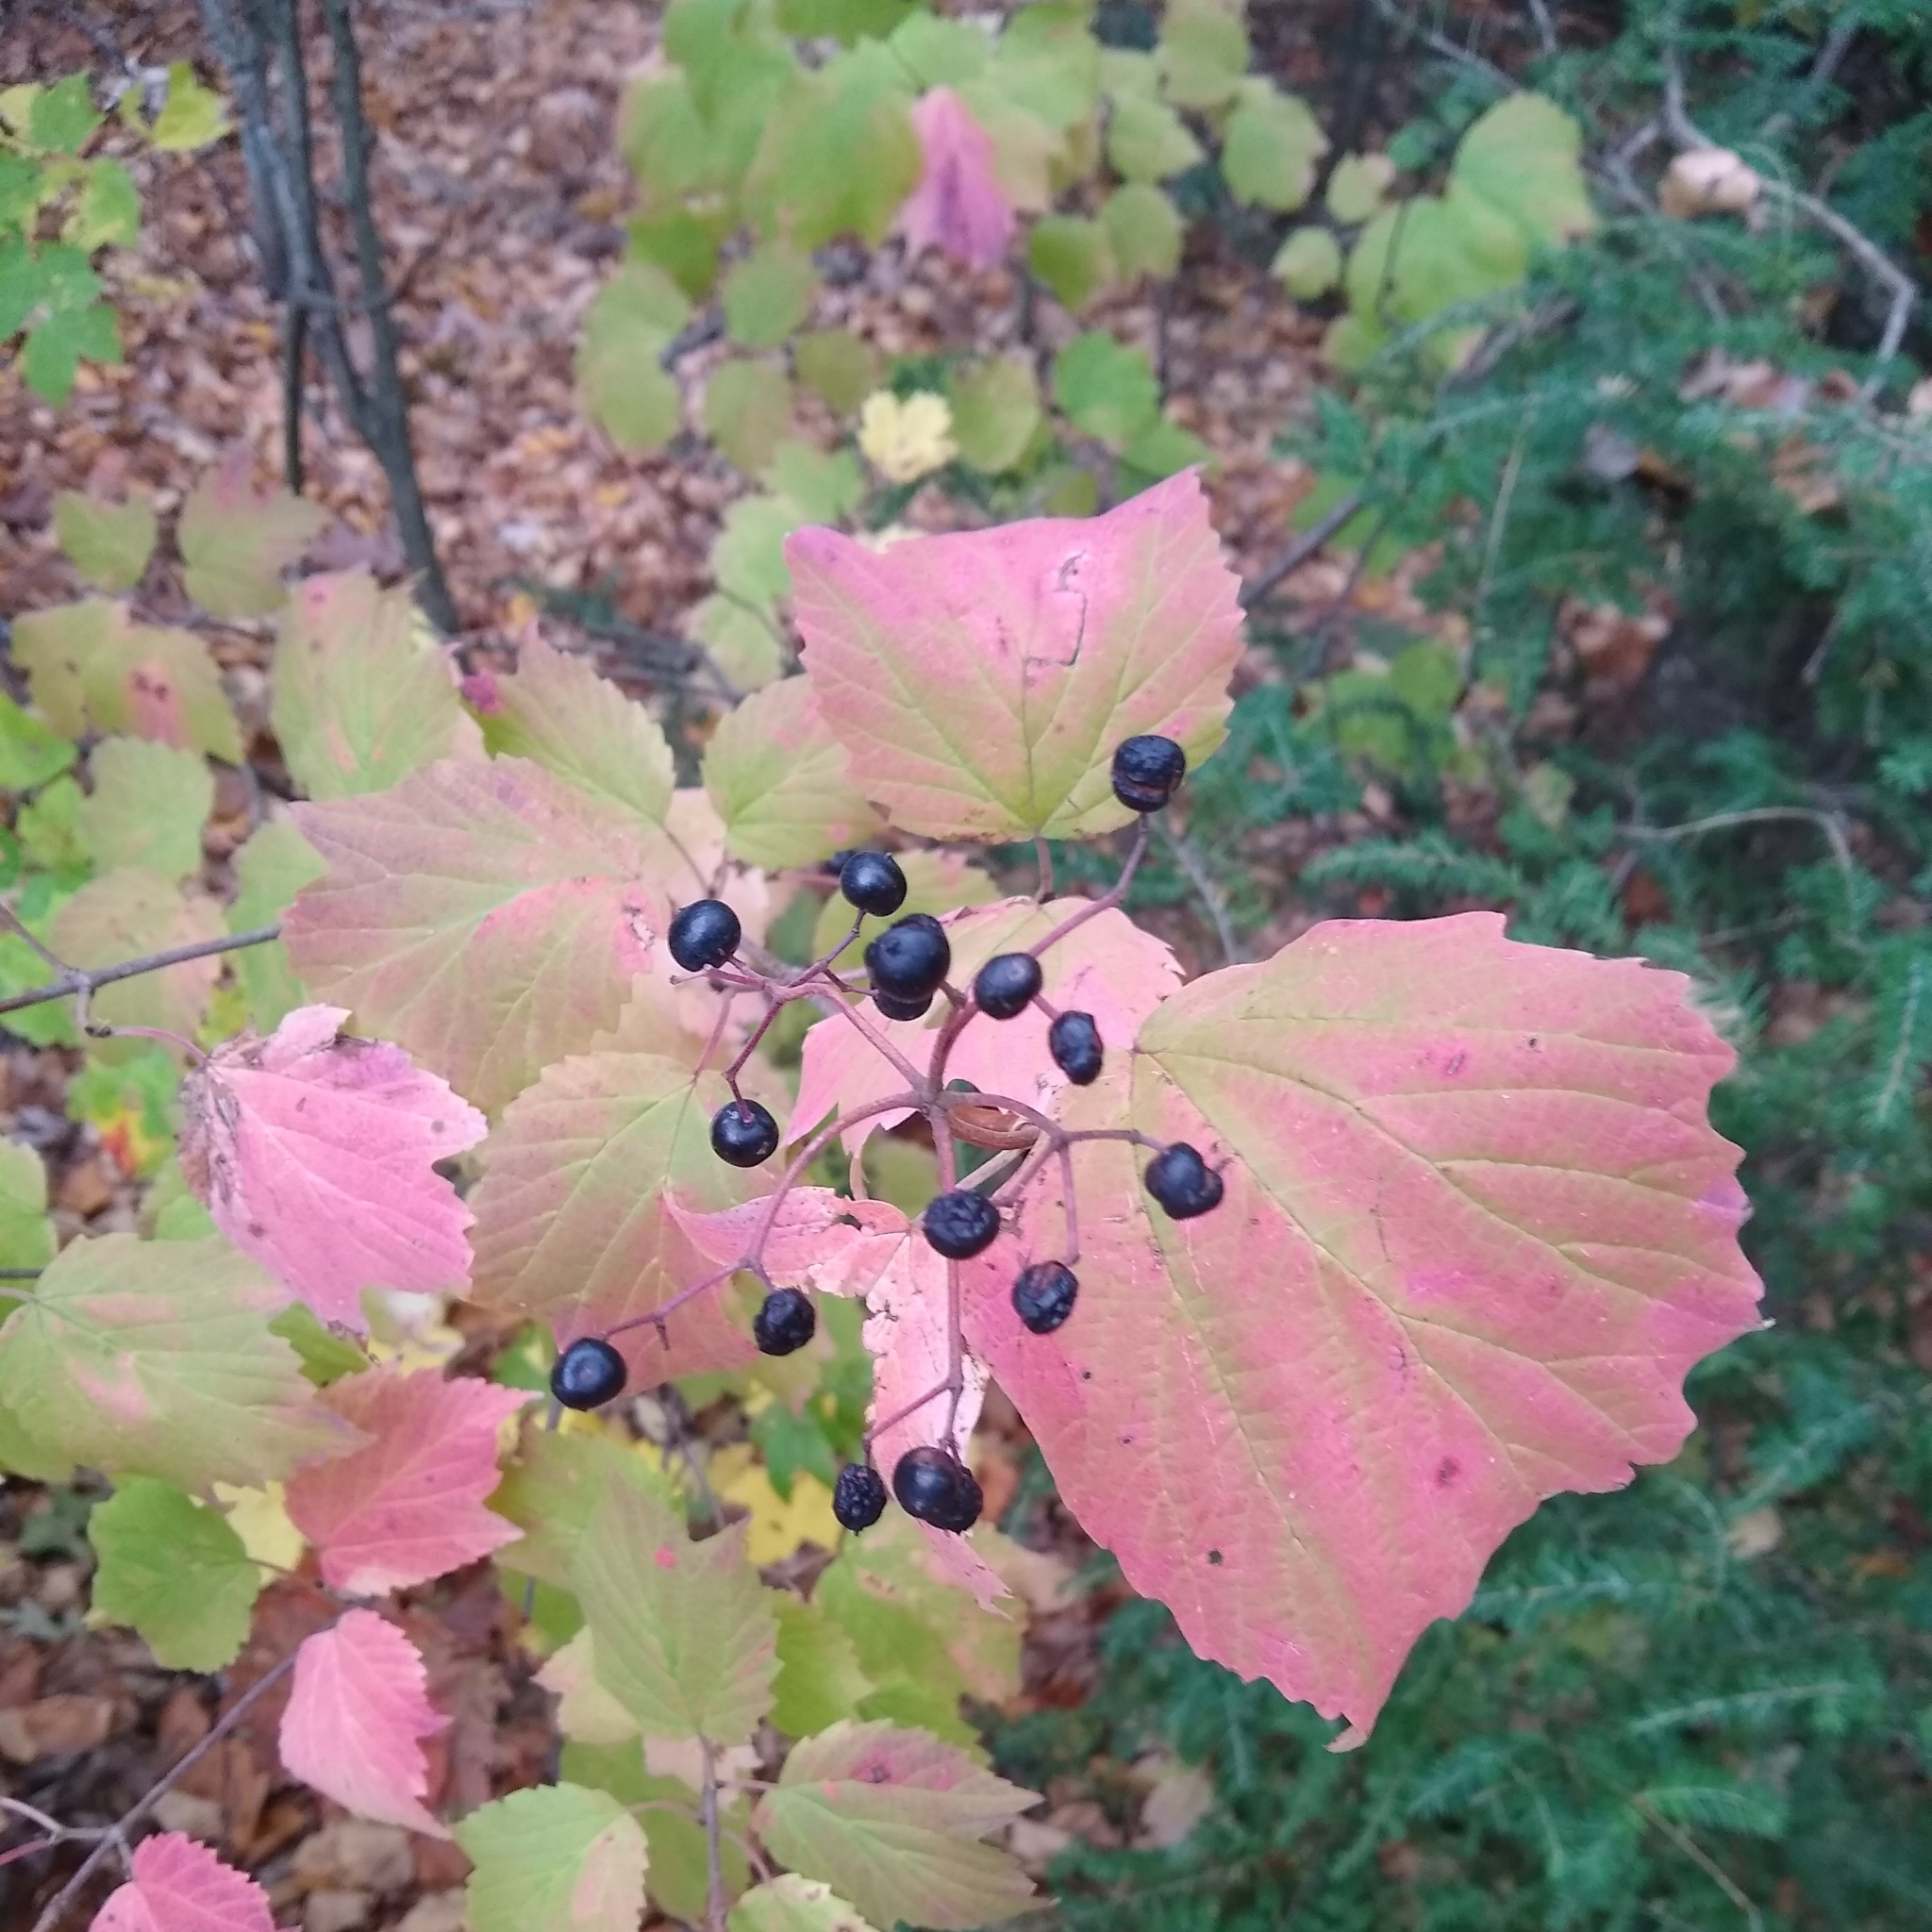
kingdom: Plantae
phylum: Tracheophyta
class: Magnoliopsida
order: Dipsacales
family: Viburnaceae
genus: Viburnum
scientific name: Viburnum acerifolium
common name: Dockmackie
